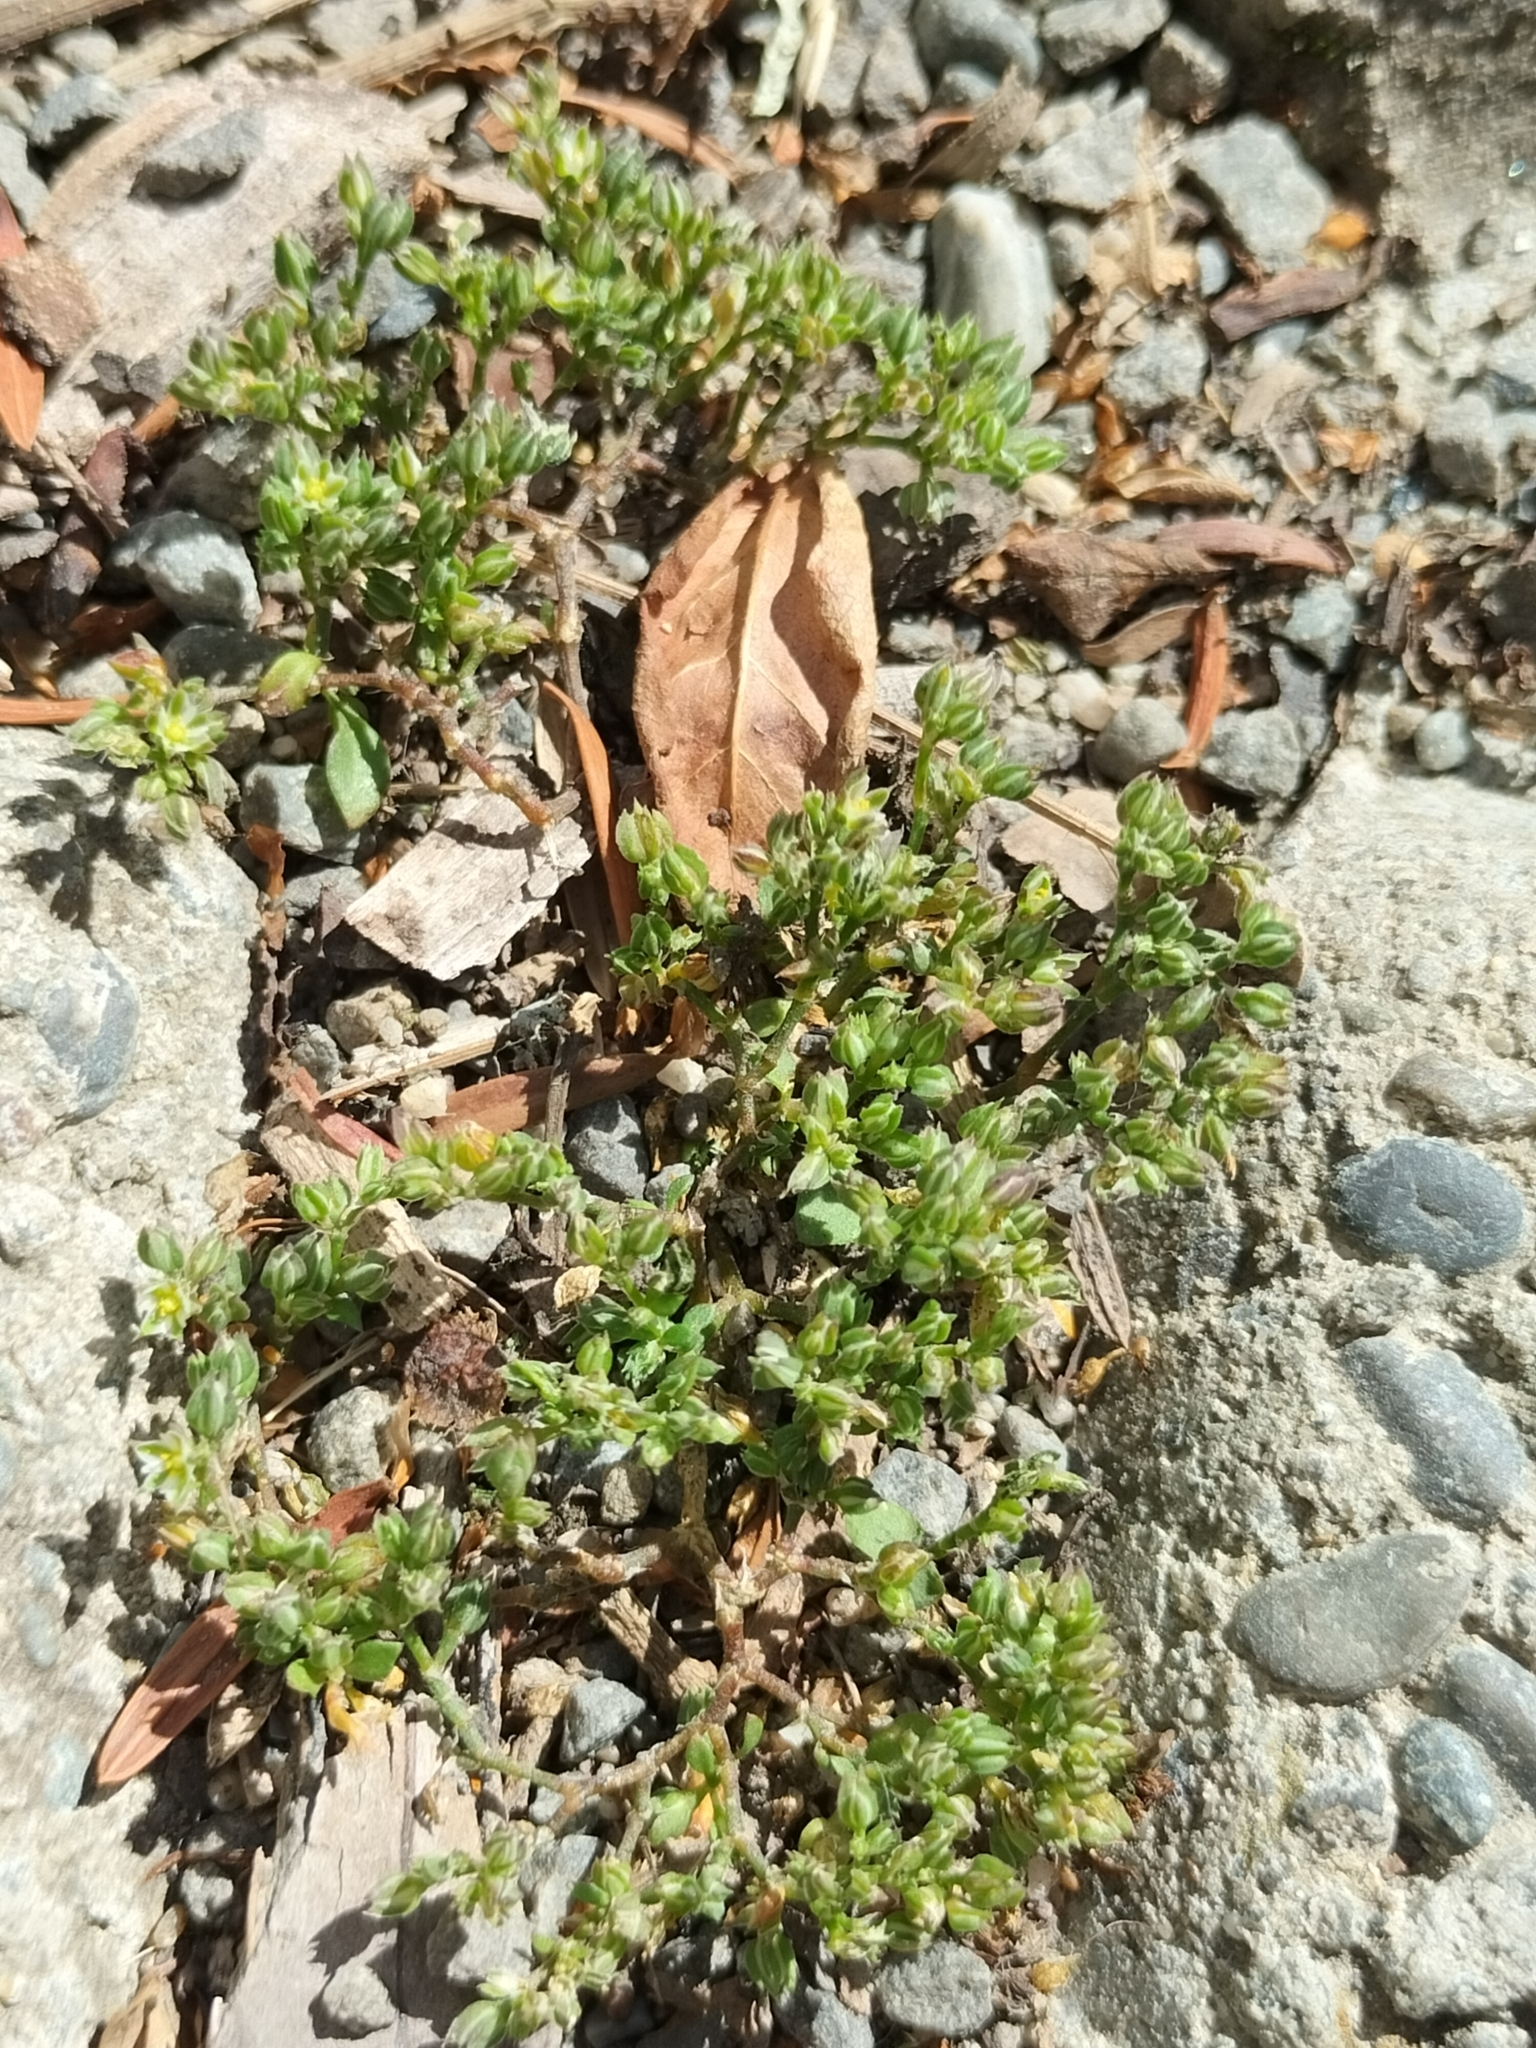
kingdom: Plantae
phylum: Tracheophyta
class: Magnoliopsida
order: Caryophyllales
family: Caryophyllaceae
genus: Polycarpon
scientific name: Polycarpon tetraphyllum
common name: Four-leaved all-seed
